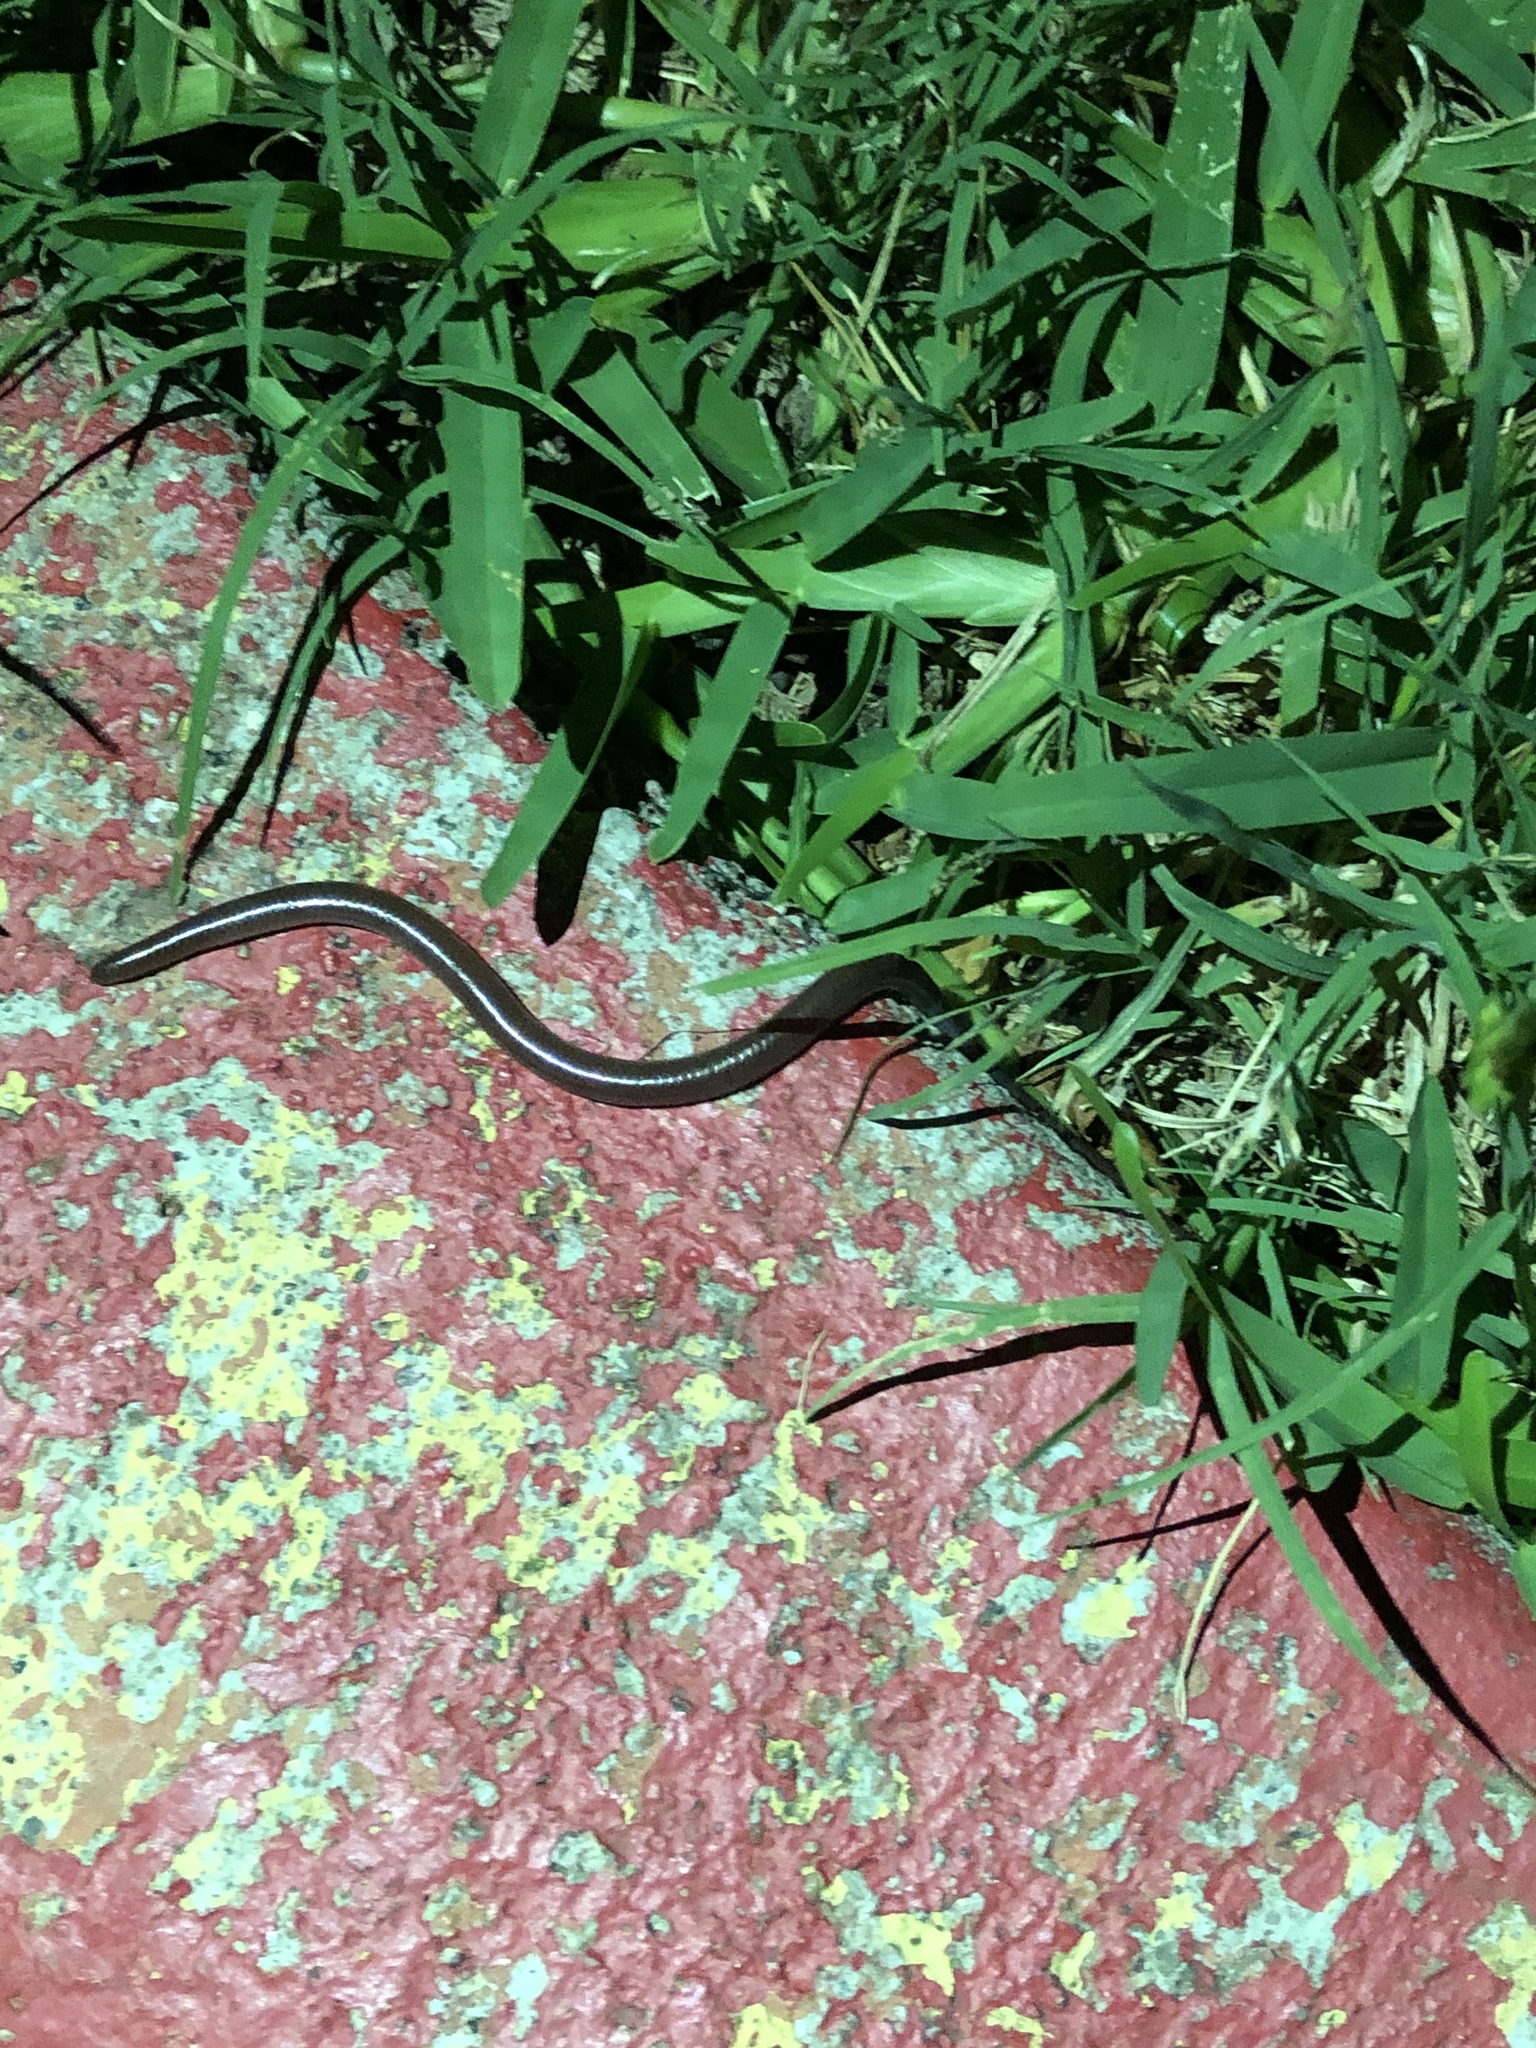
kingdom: Animalia
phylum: Chordata
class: Squamata
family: Leptotyphlopidae
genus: Rena
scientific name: Rena dulcis
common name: Texas blind snake
